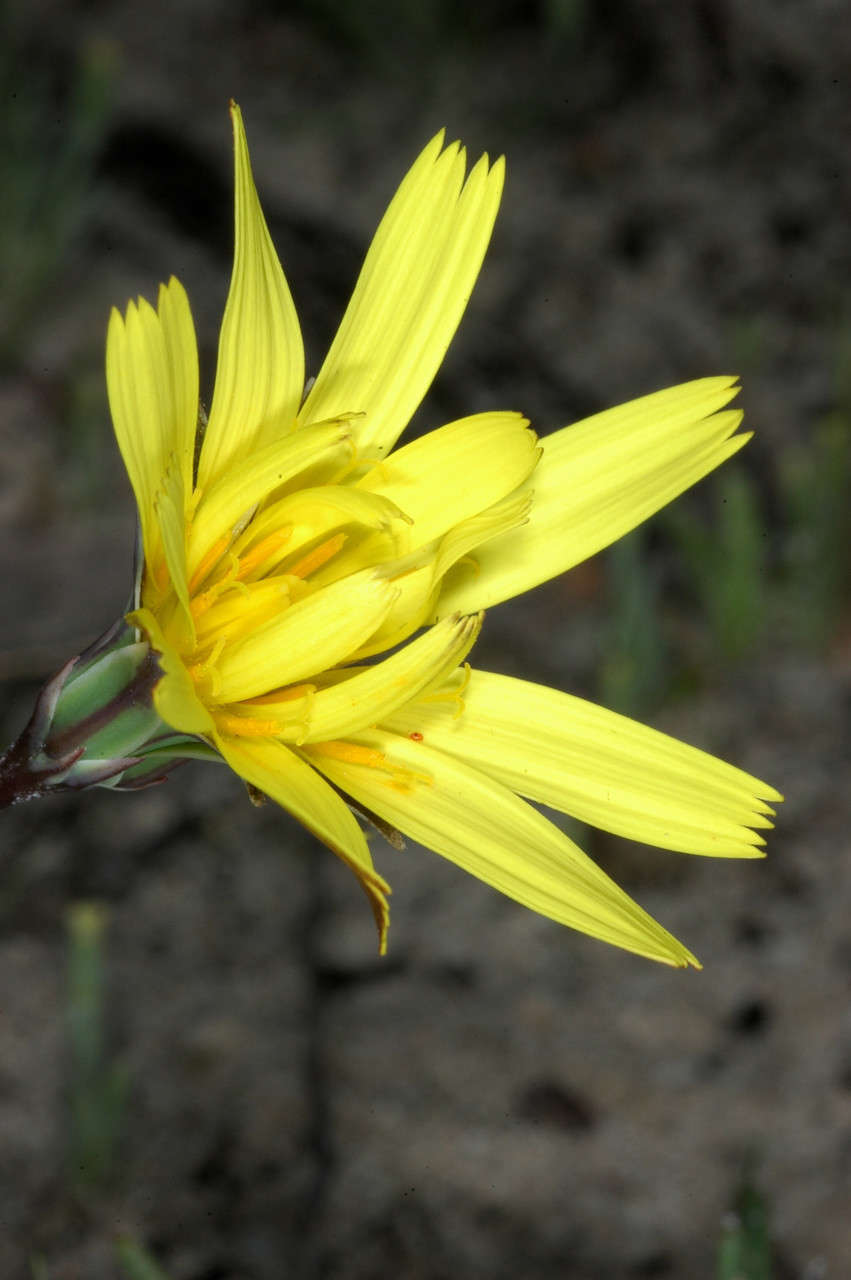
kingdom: Plantae
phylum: Tracheophyta
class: Magnoliopsida
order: Asterales
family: Asteraceae
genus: Microseris
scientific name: Microseris lanceolata
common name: Yam daisy
